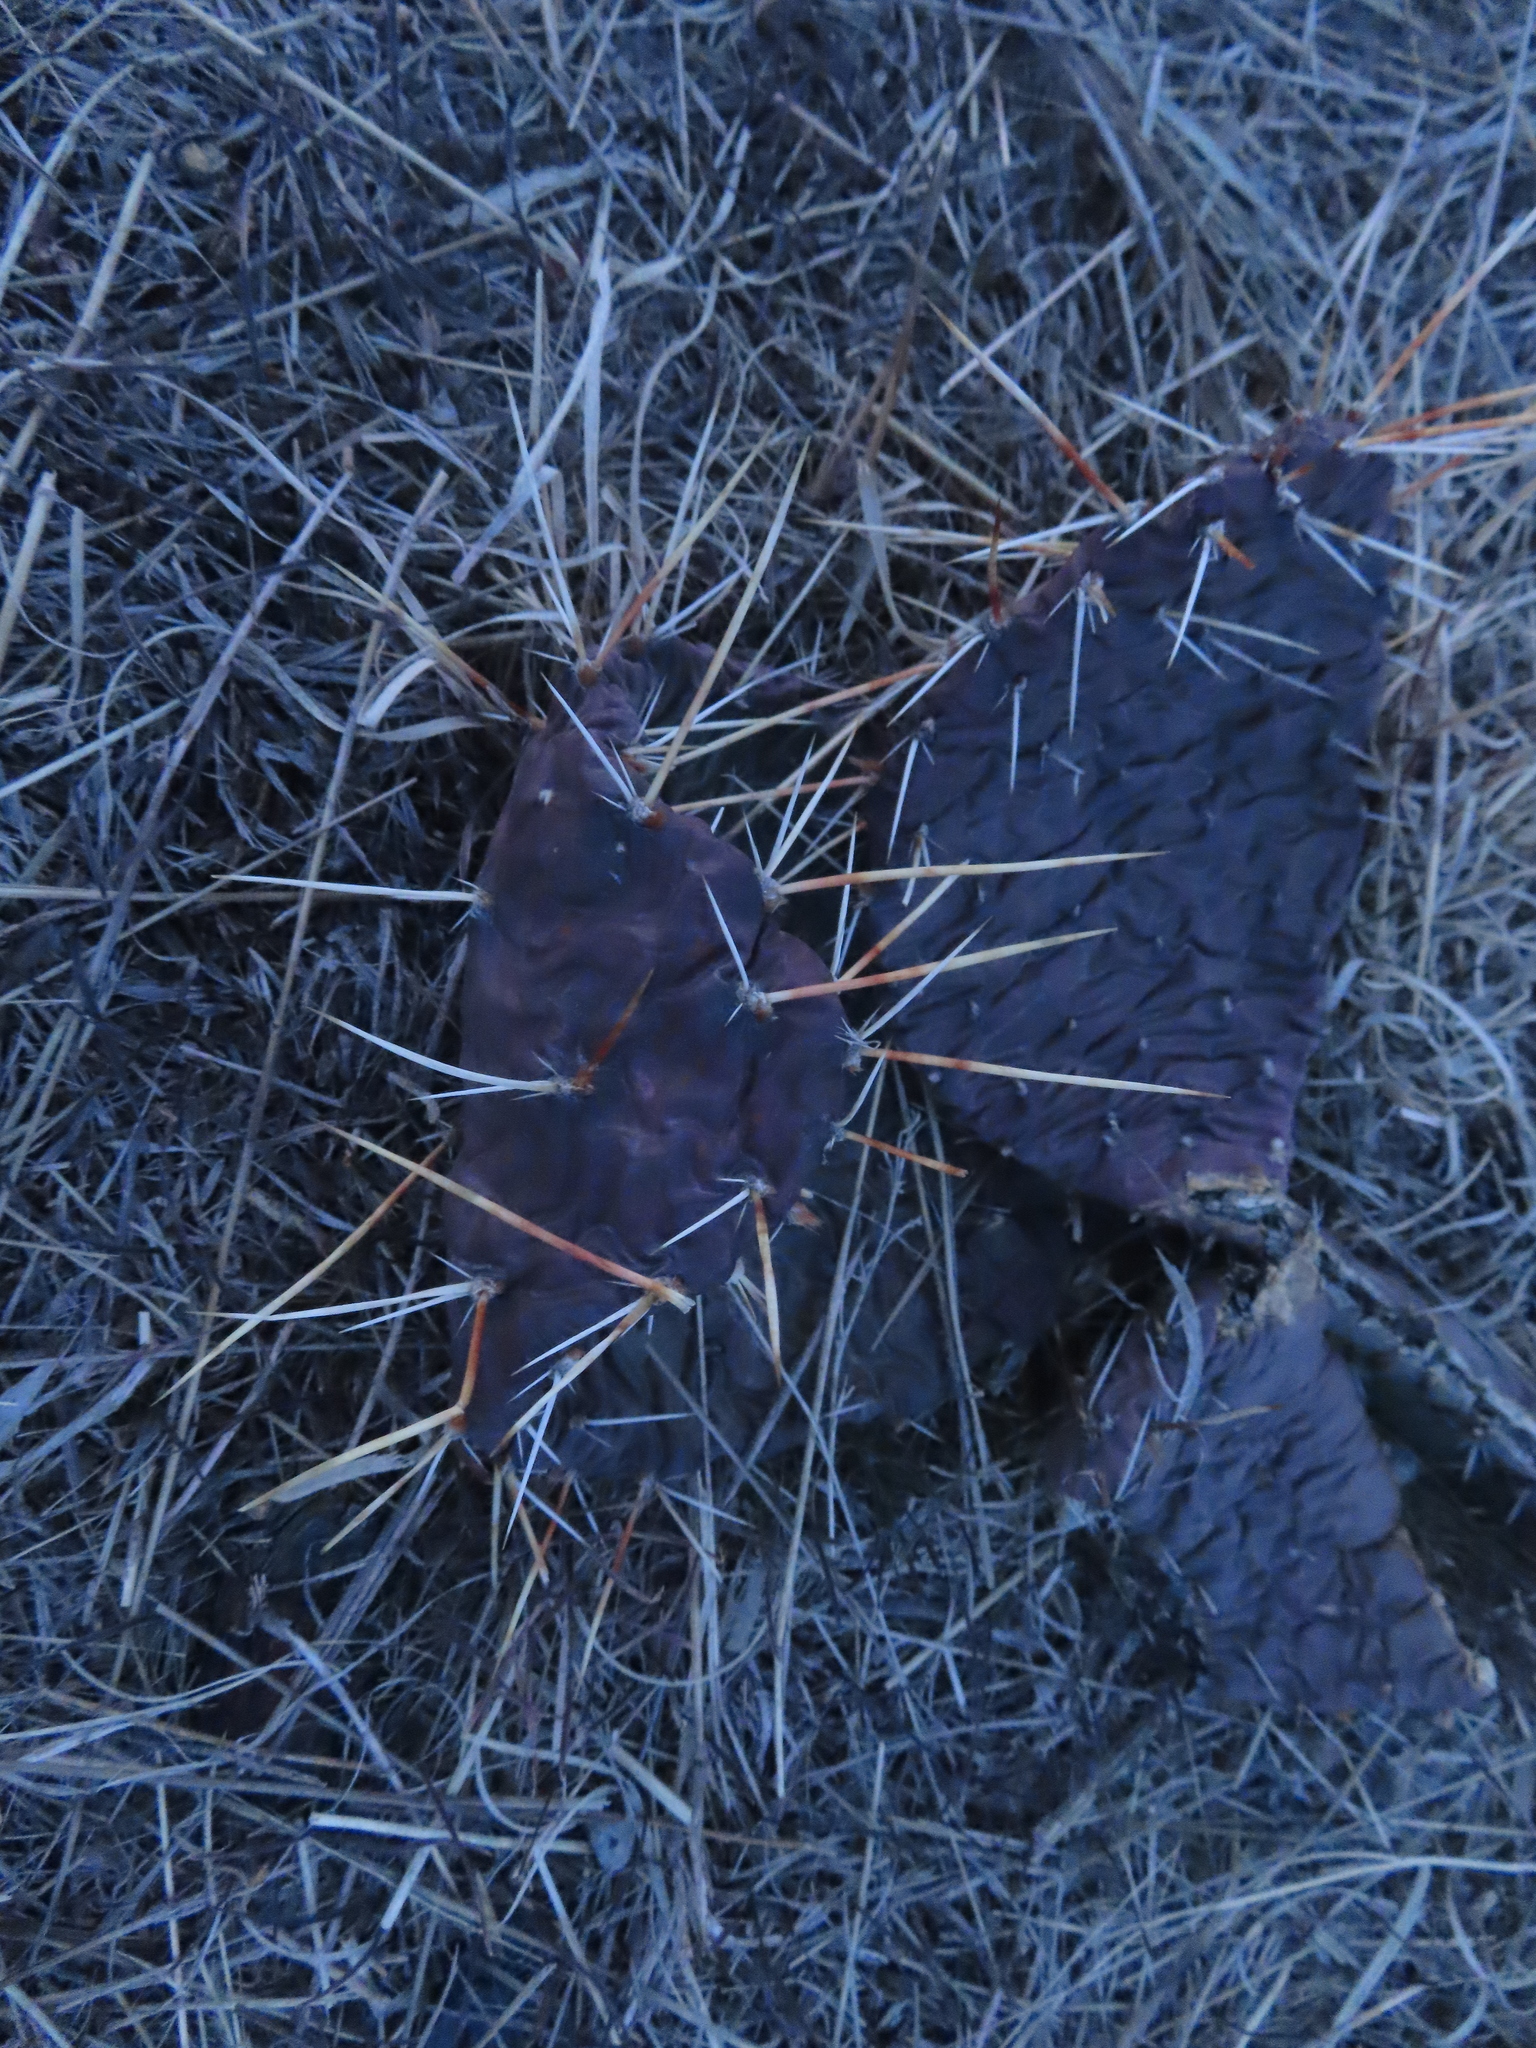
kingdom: Plantae
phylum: Tracheophyta
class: Magnoliopsida
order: Caryophyllales
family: Cactaceae
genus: Opuntia
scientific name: Opuntia macrorhiza
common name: Grassland pricklypear
